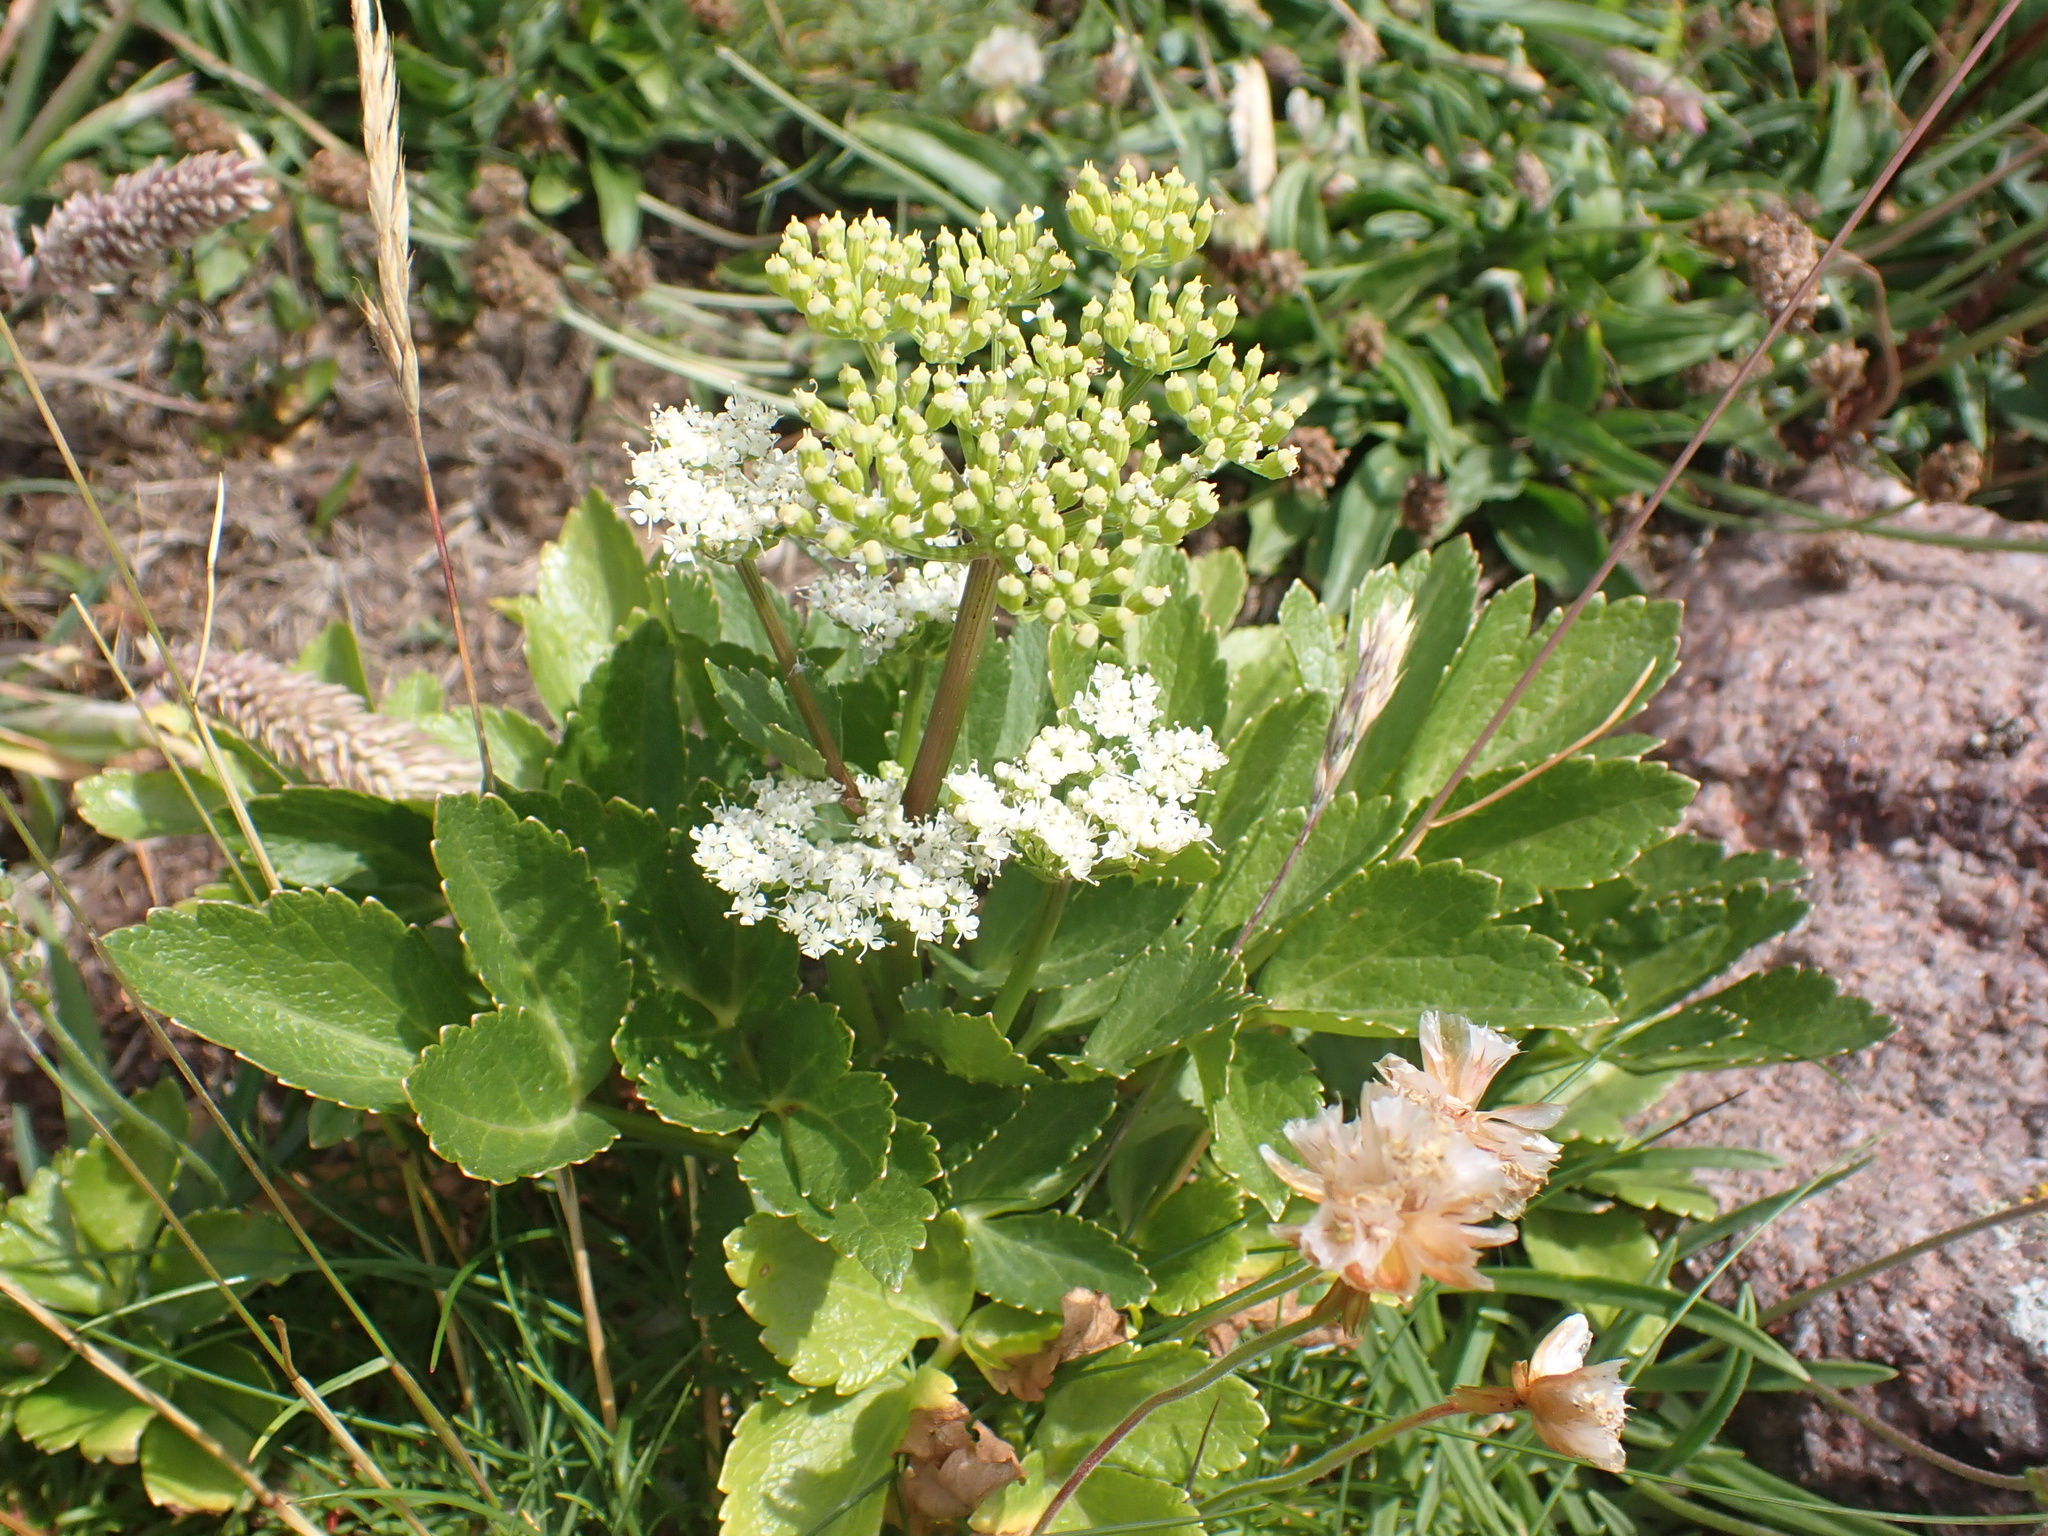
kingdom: Plantae
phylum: Tracheophyta
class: Magnoliopsida
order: Apiales
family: Apiaceae
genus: Ligusticum
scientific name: Ligusticum scothicum
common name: Beach lovage
